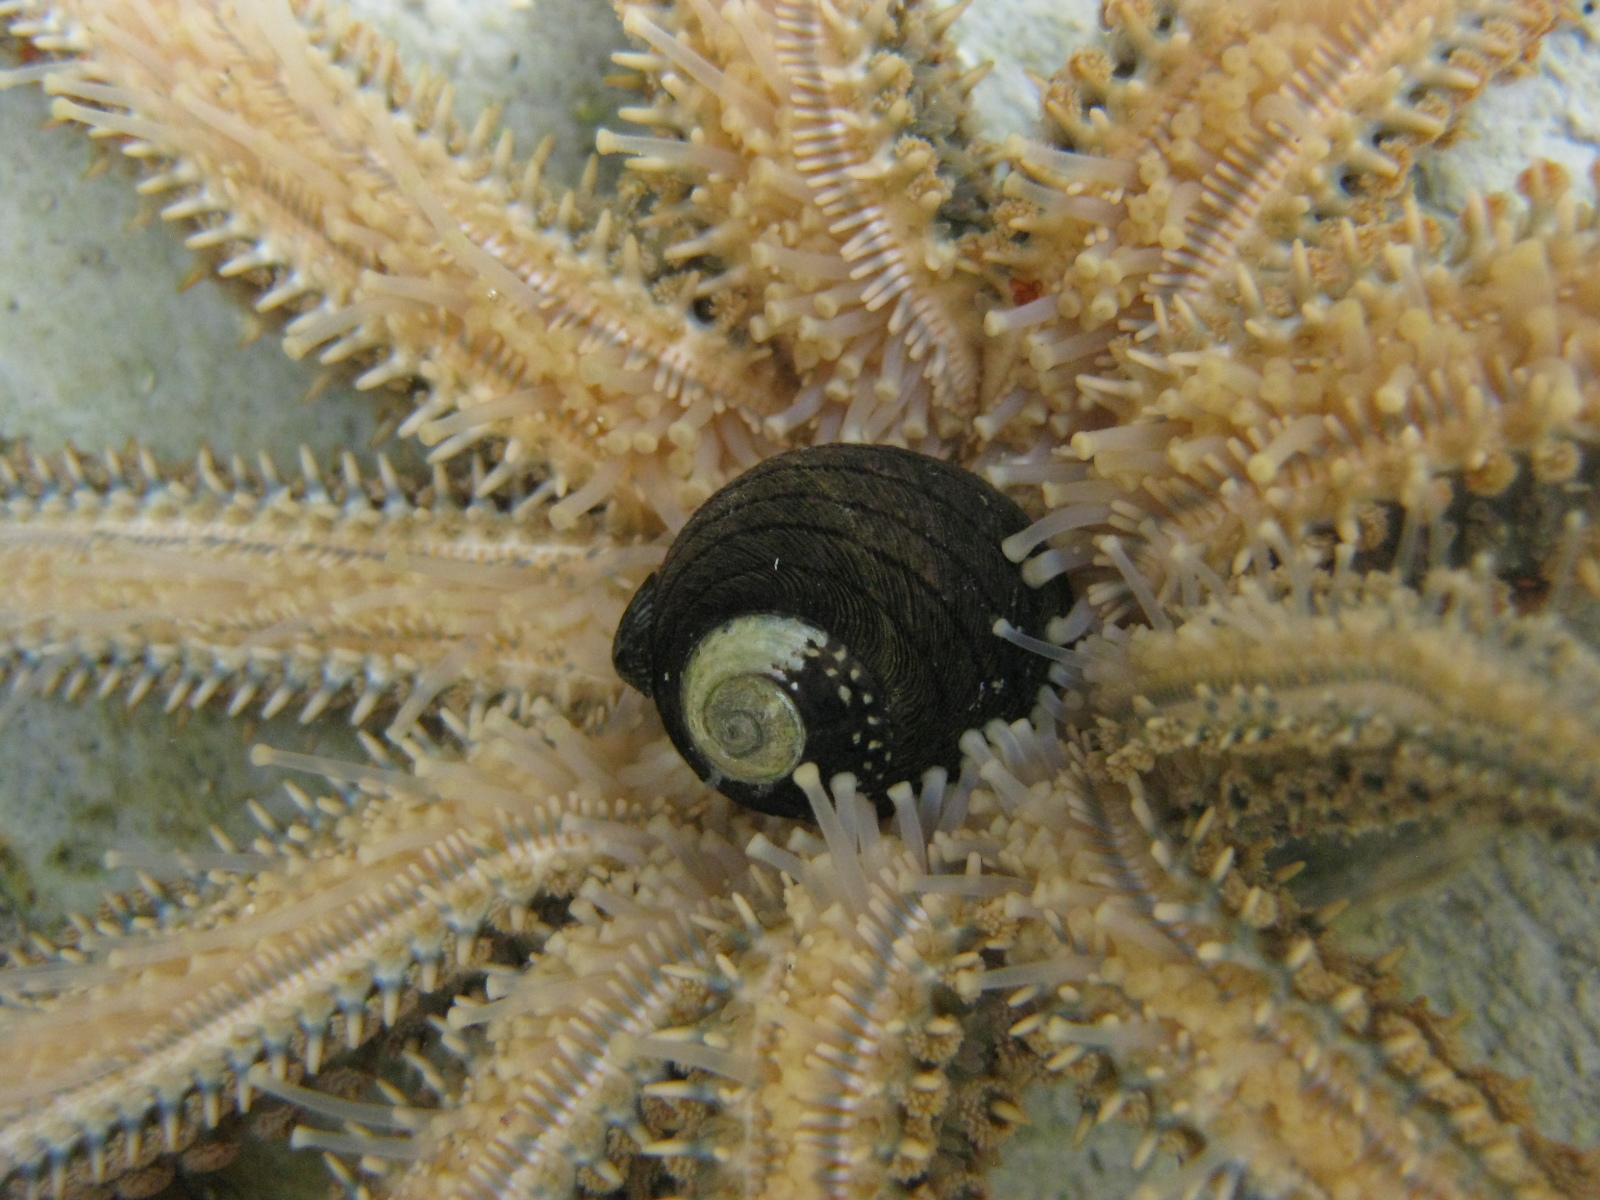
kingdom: Animalia
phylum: Mollusca
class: Gastropoda
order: Trochida
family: Trochidae
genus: Diloma
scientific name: Diloma aethiops
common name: Scorched monodont
